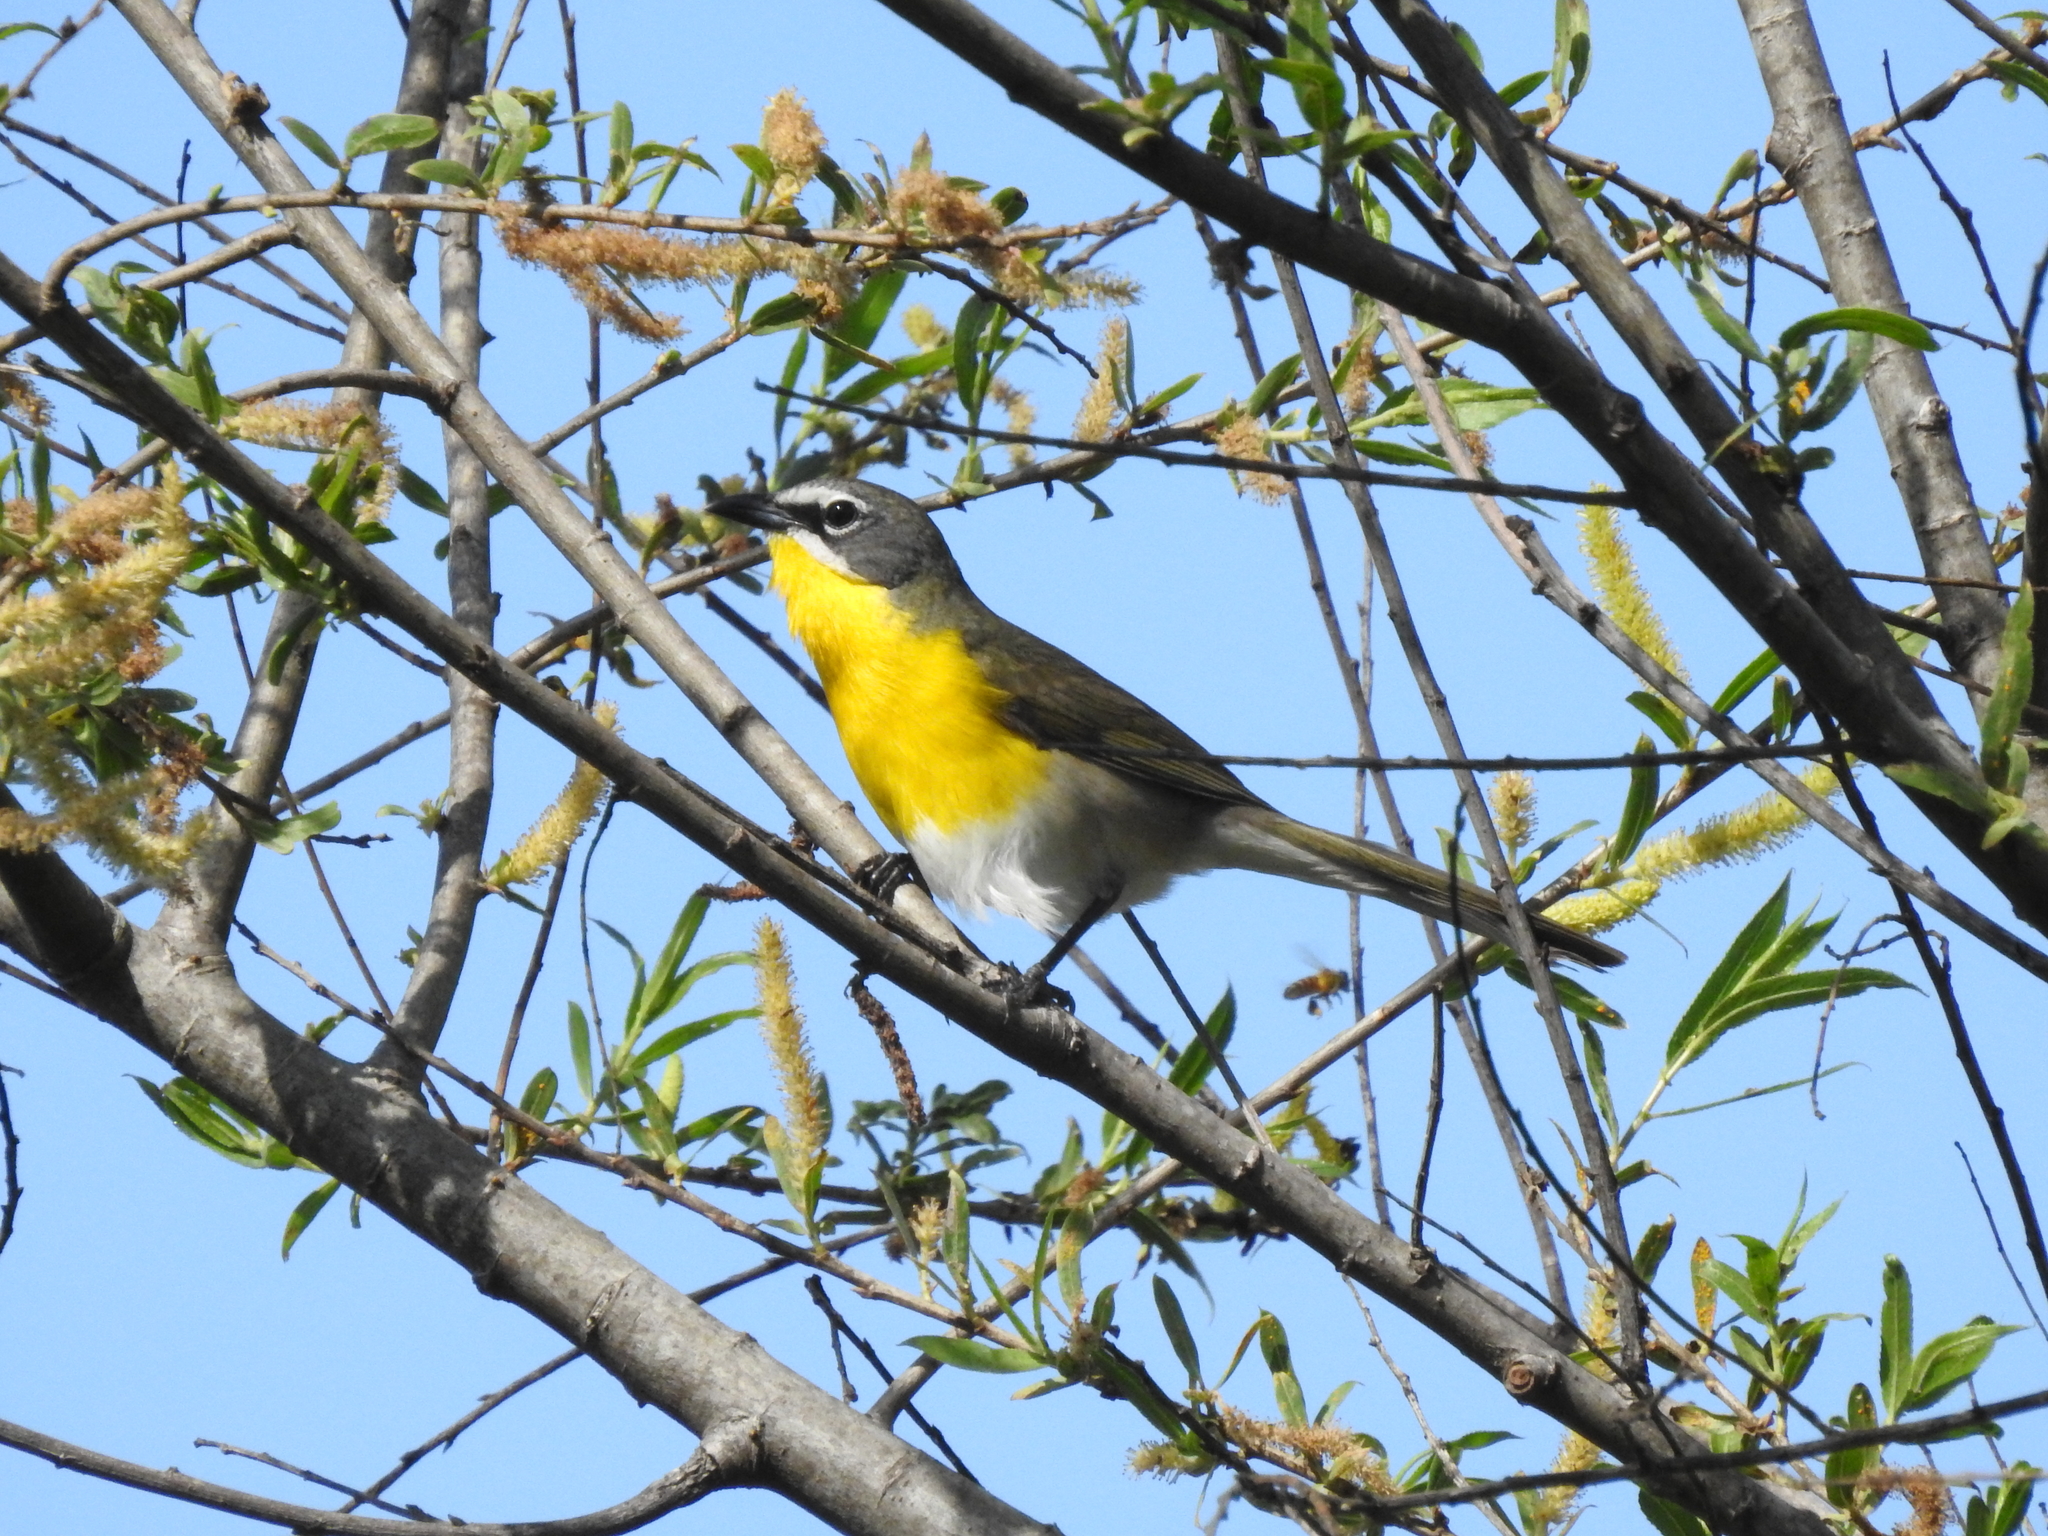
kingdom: Animalia
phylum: Chordata
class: Aves
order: Passeriformes
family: Parulidae
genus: Icteria
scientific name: Icteria virens
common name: Yellow-breasted chat
